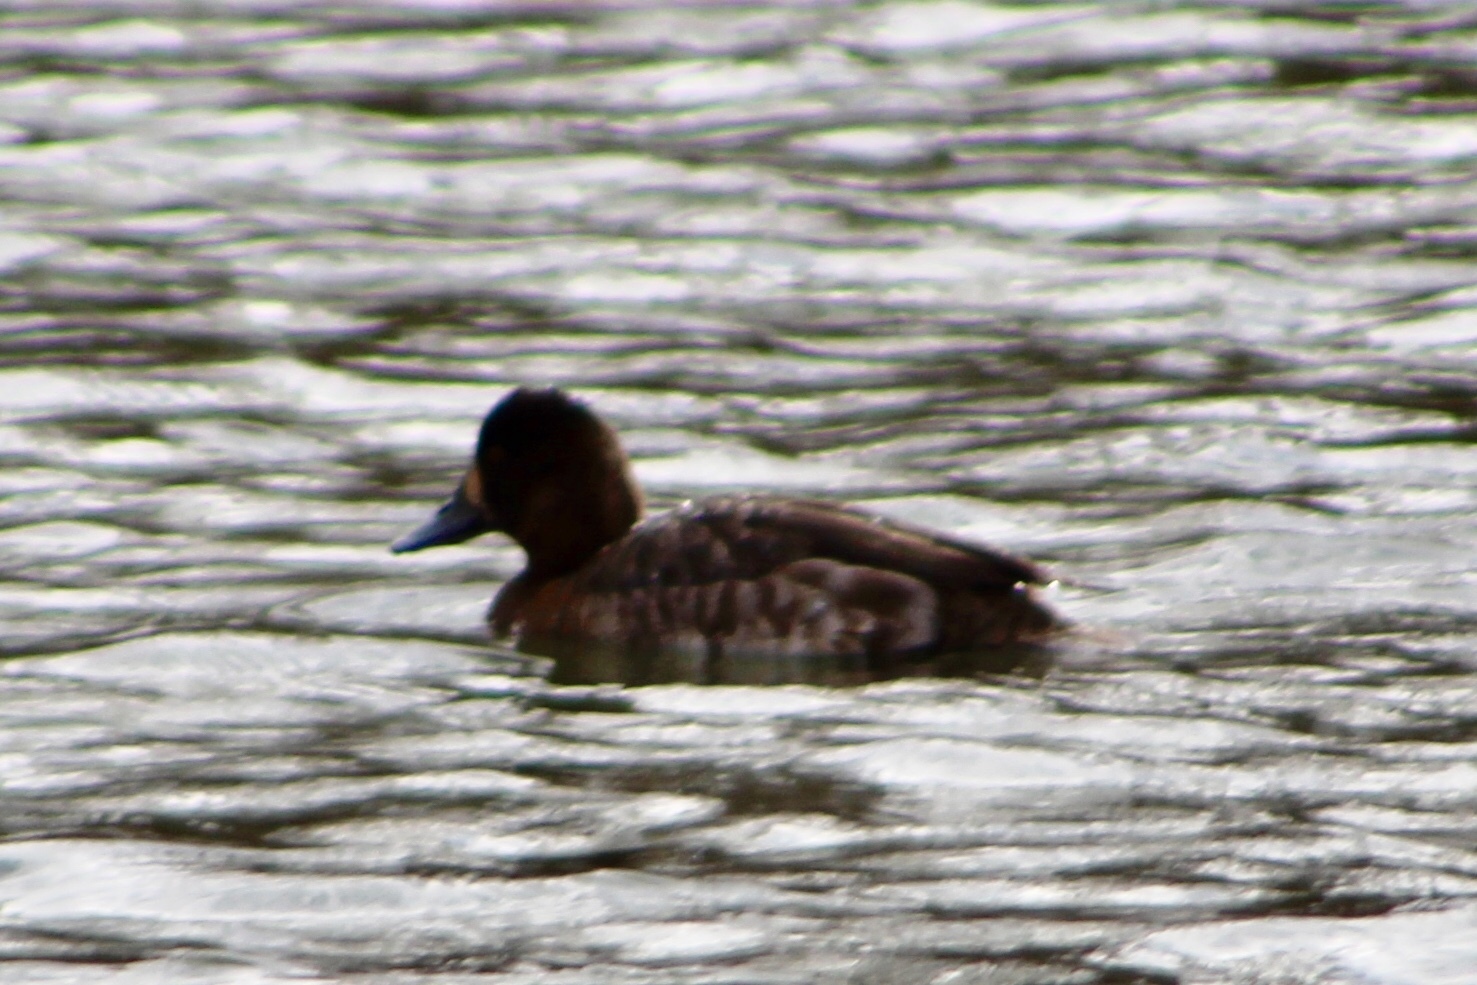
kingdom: Animalia
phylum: Chordata
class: Aves
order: Anseriformes
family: Anatidae
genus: Aythya
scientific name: Aythya affinis
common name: Lesser scaup
